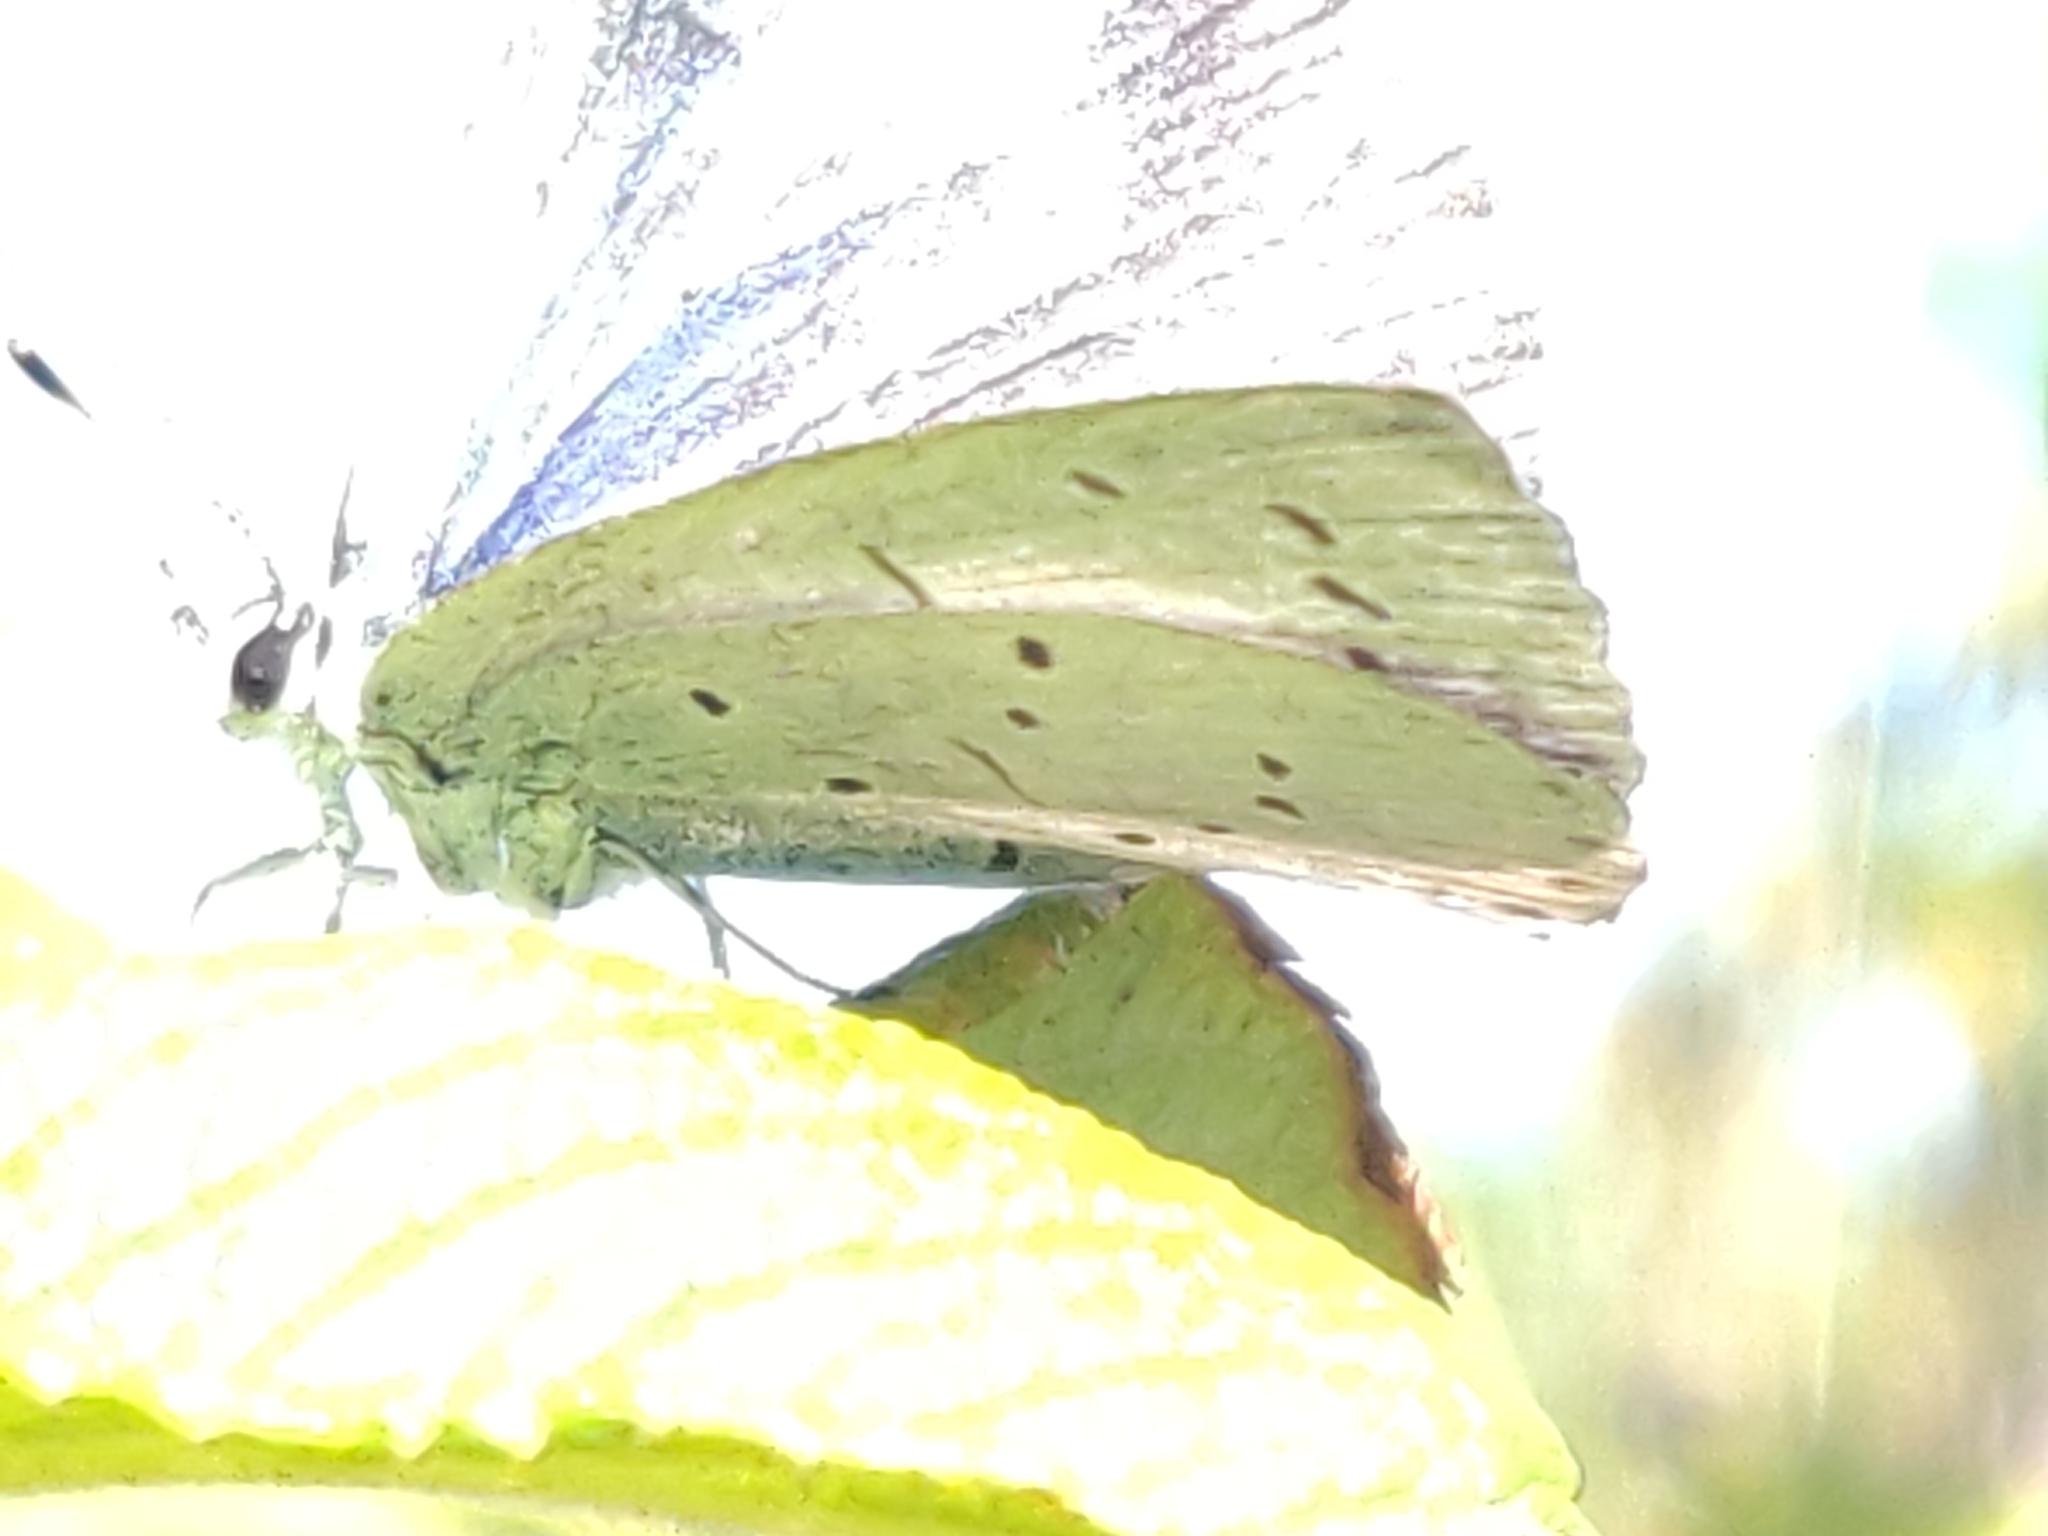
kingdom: Animalia
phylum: Arthropoda
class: Insecta
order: Lepidoptera
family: Lycaenidae
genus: Celastrina
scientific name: Celastrina argiolus
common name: Holly blue
